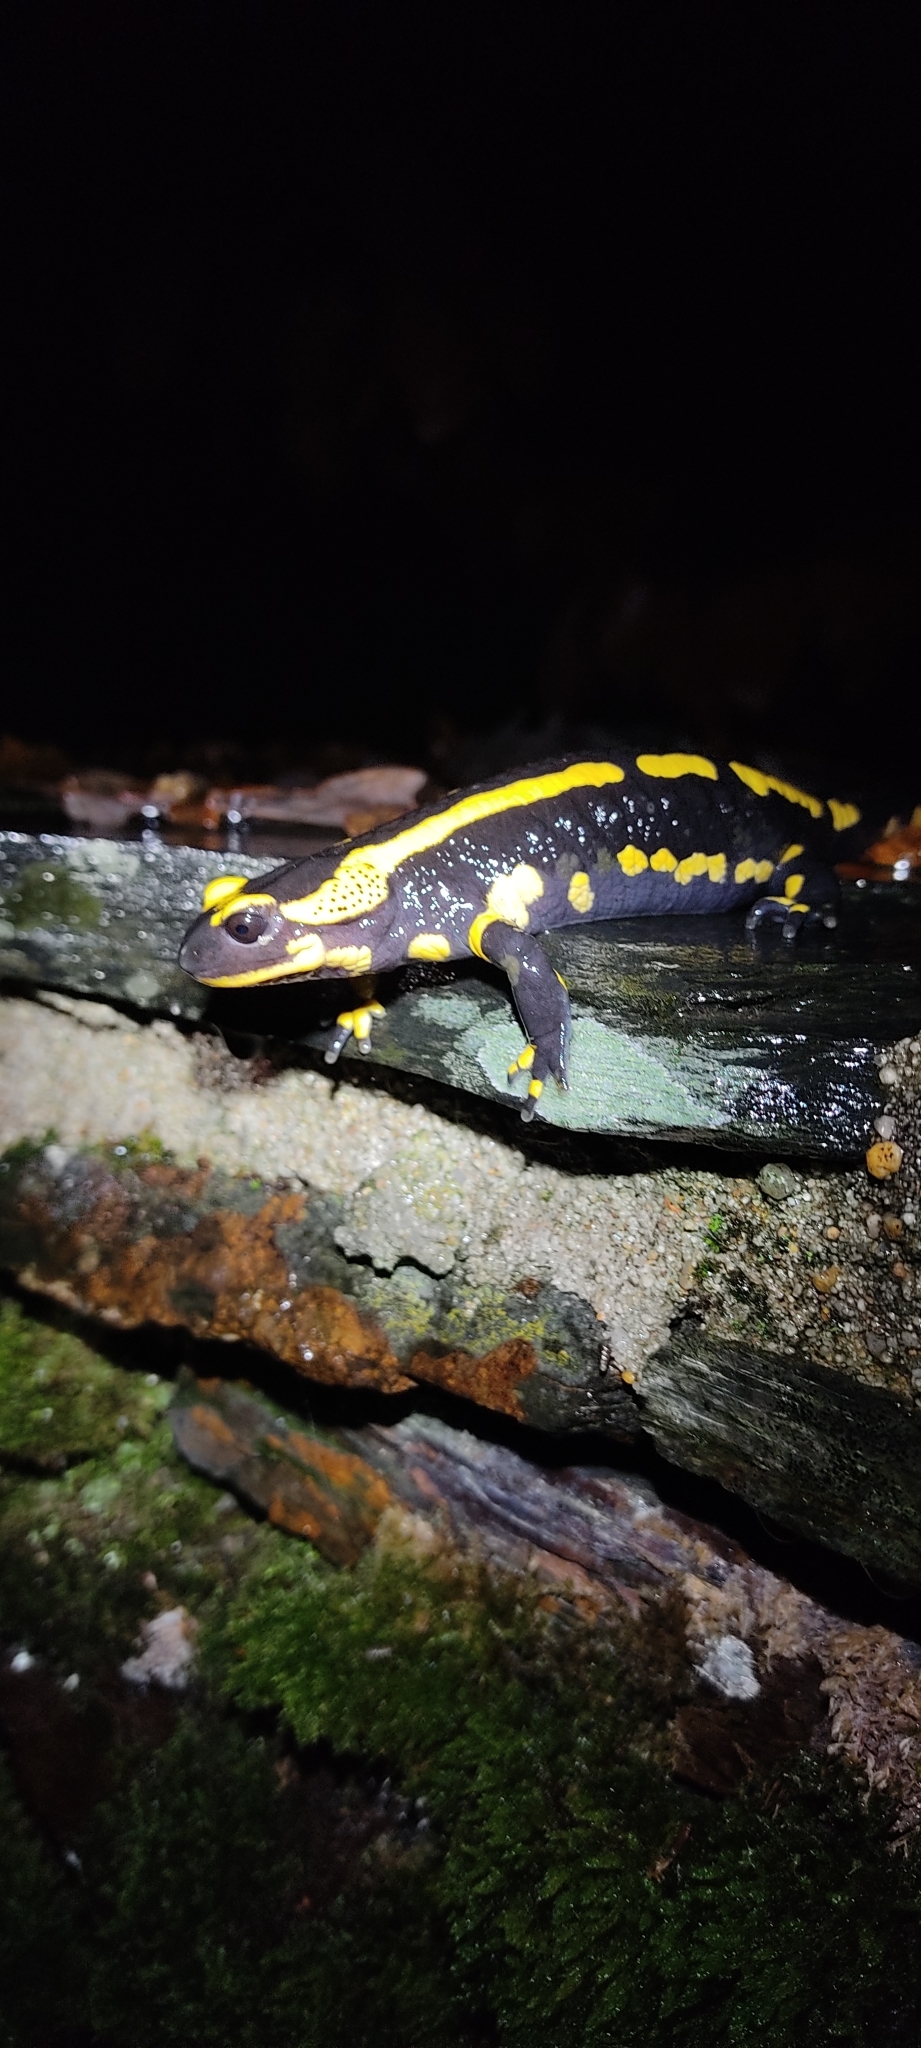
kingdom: Animalia
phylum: Chordata
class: Amphibia
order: Caudata
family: Salamandridae
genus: Salamandra
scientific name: Salamandra salamandra
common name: Fire salamander
